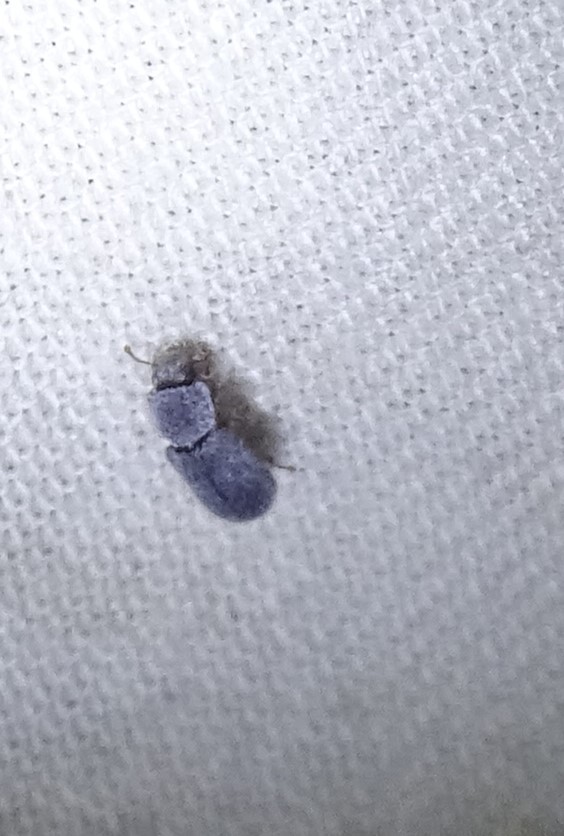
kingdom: Animalia
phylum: Arthropoda
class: Insecta
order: Coleoptera
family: Zopheridae
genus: Endeitoma
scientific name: Endeitoma granulata
